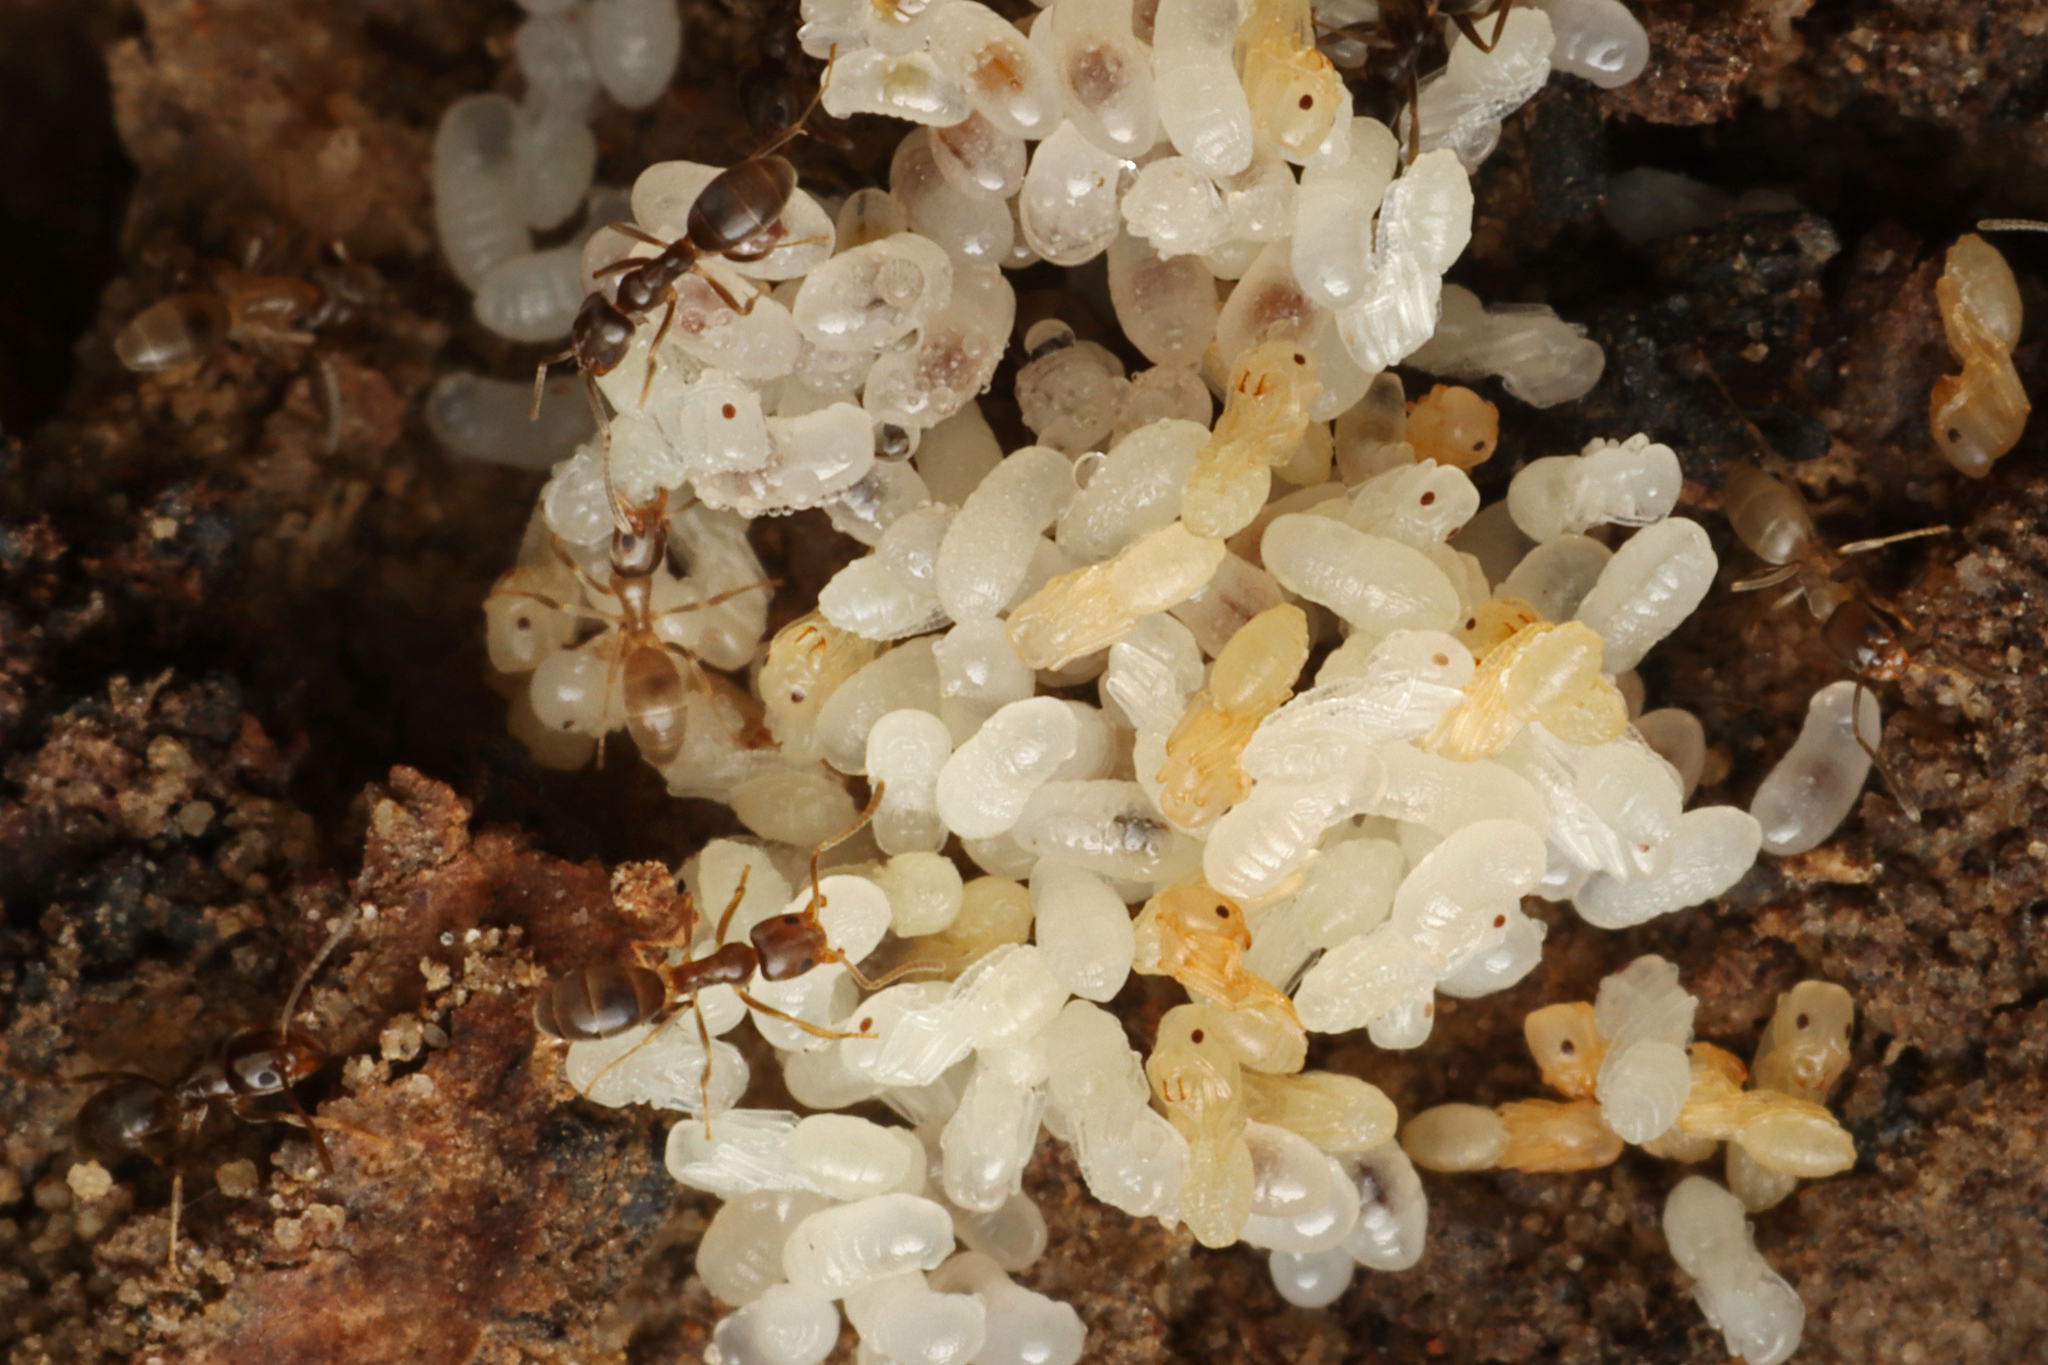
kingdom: Animalia
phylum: Arthropoda
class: Insecta
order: Hymenoptera
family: Formicidae
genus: Doleromyrma
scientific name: Doleromyrma darwiniana
